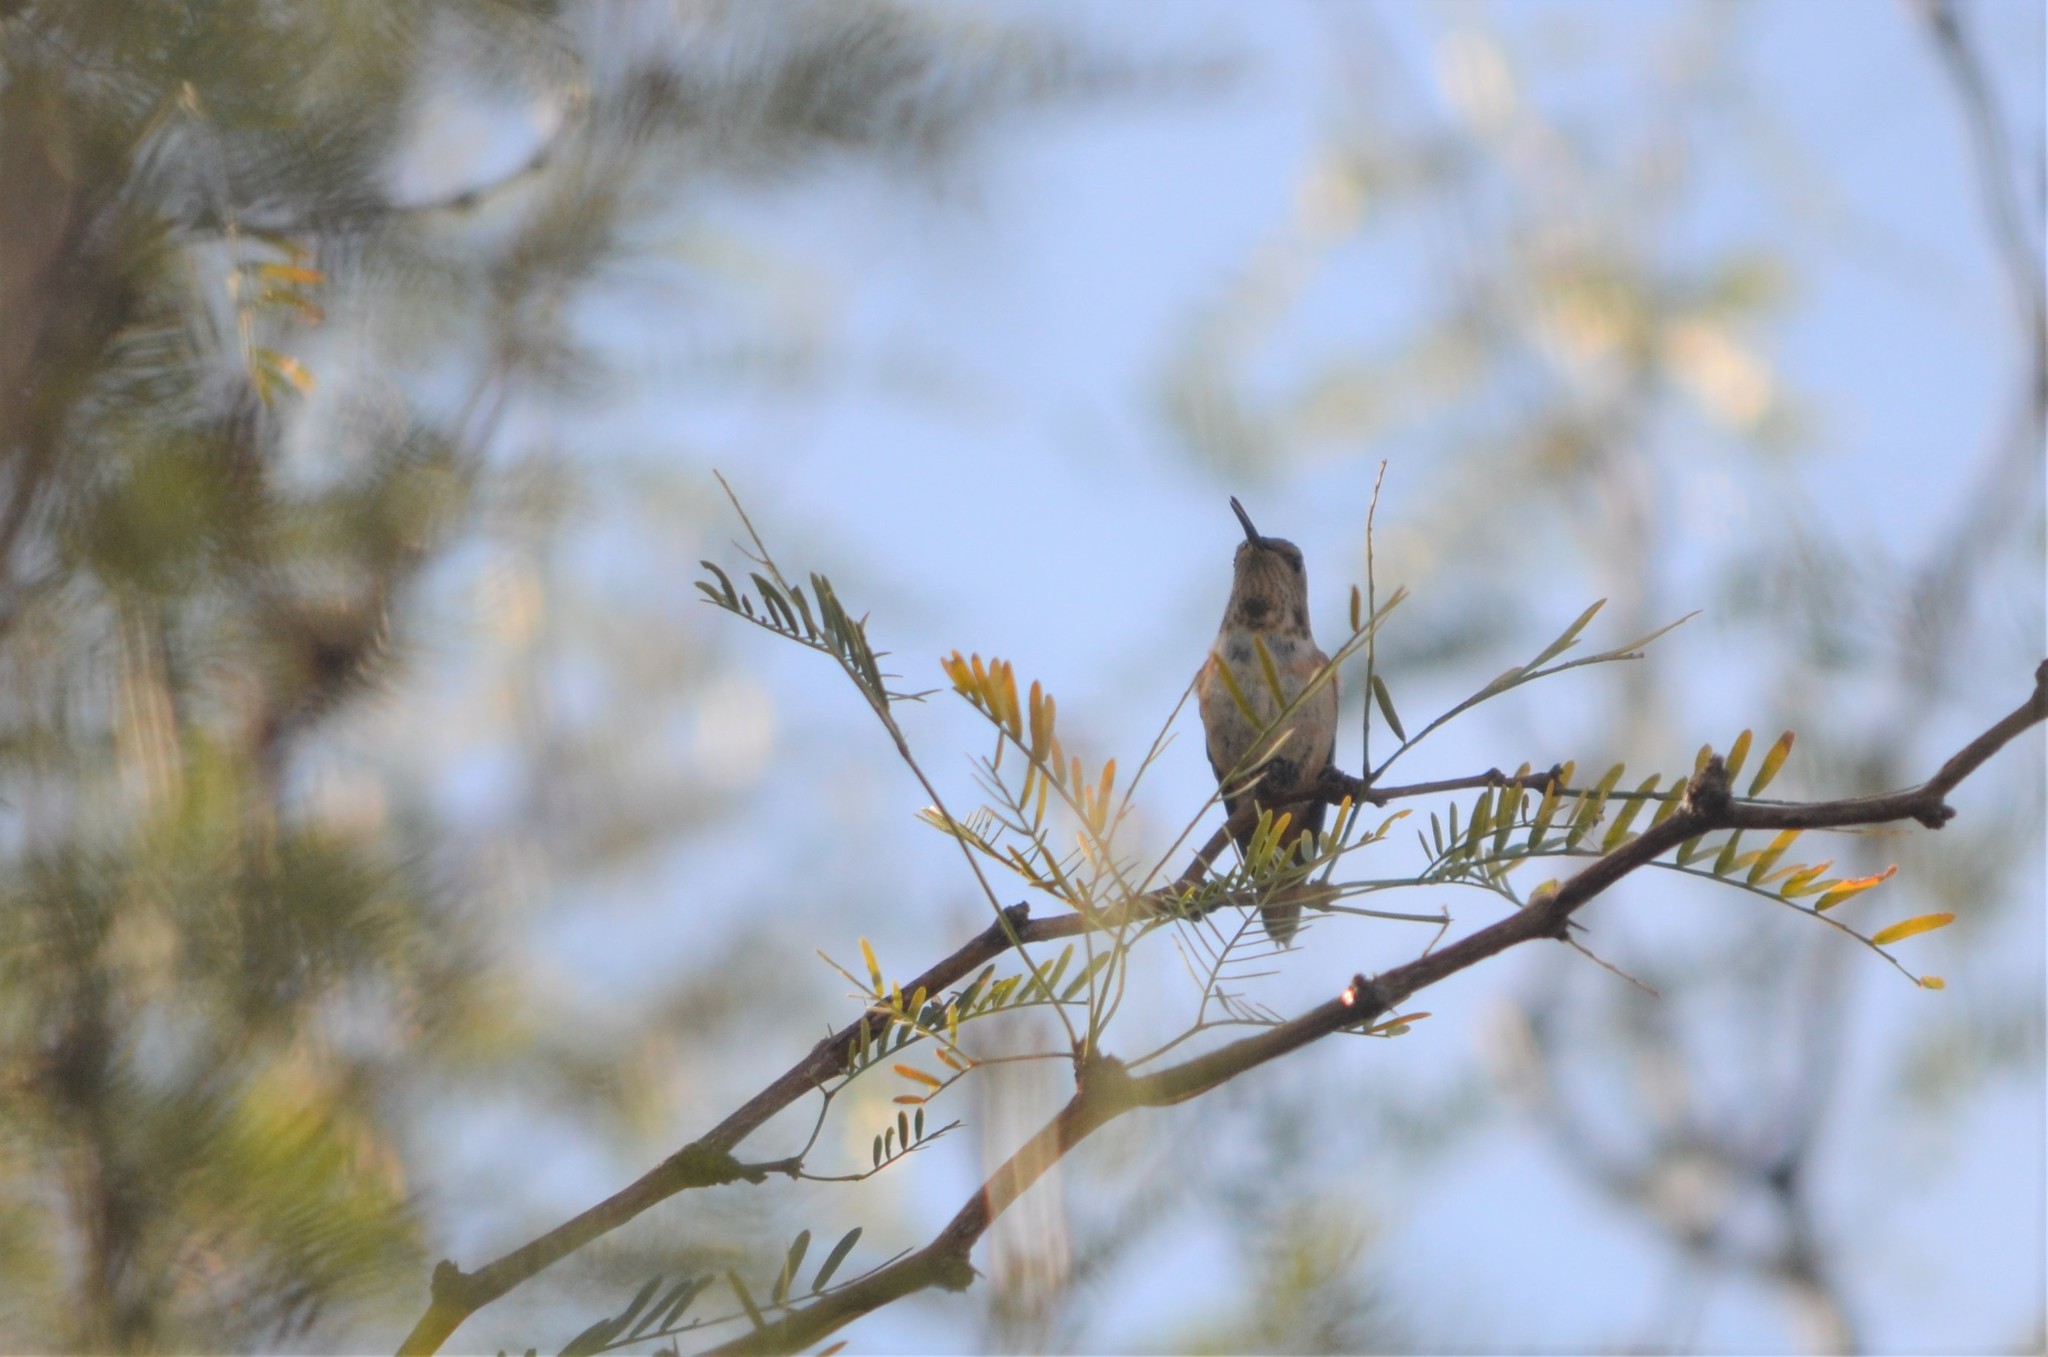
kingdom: Animalia
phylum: Chordata
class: Aves
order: Apodiformes
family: Trochilidae
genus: Selasphorus
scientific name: Selasphorus
